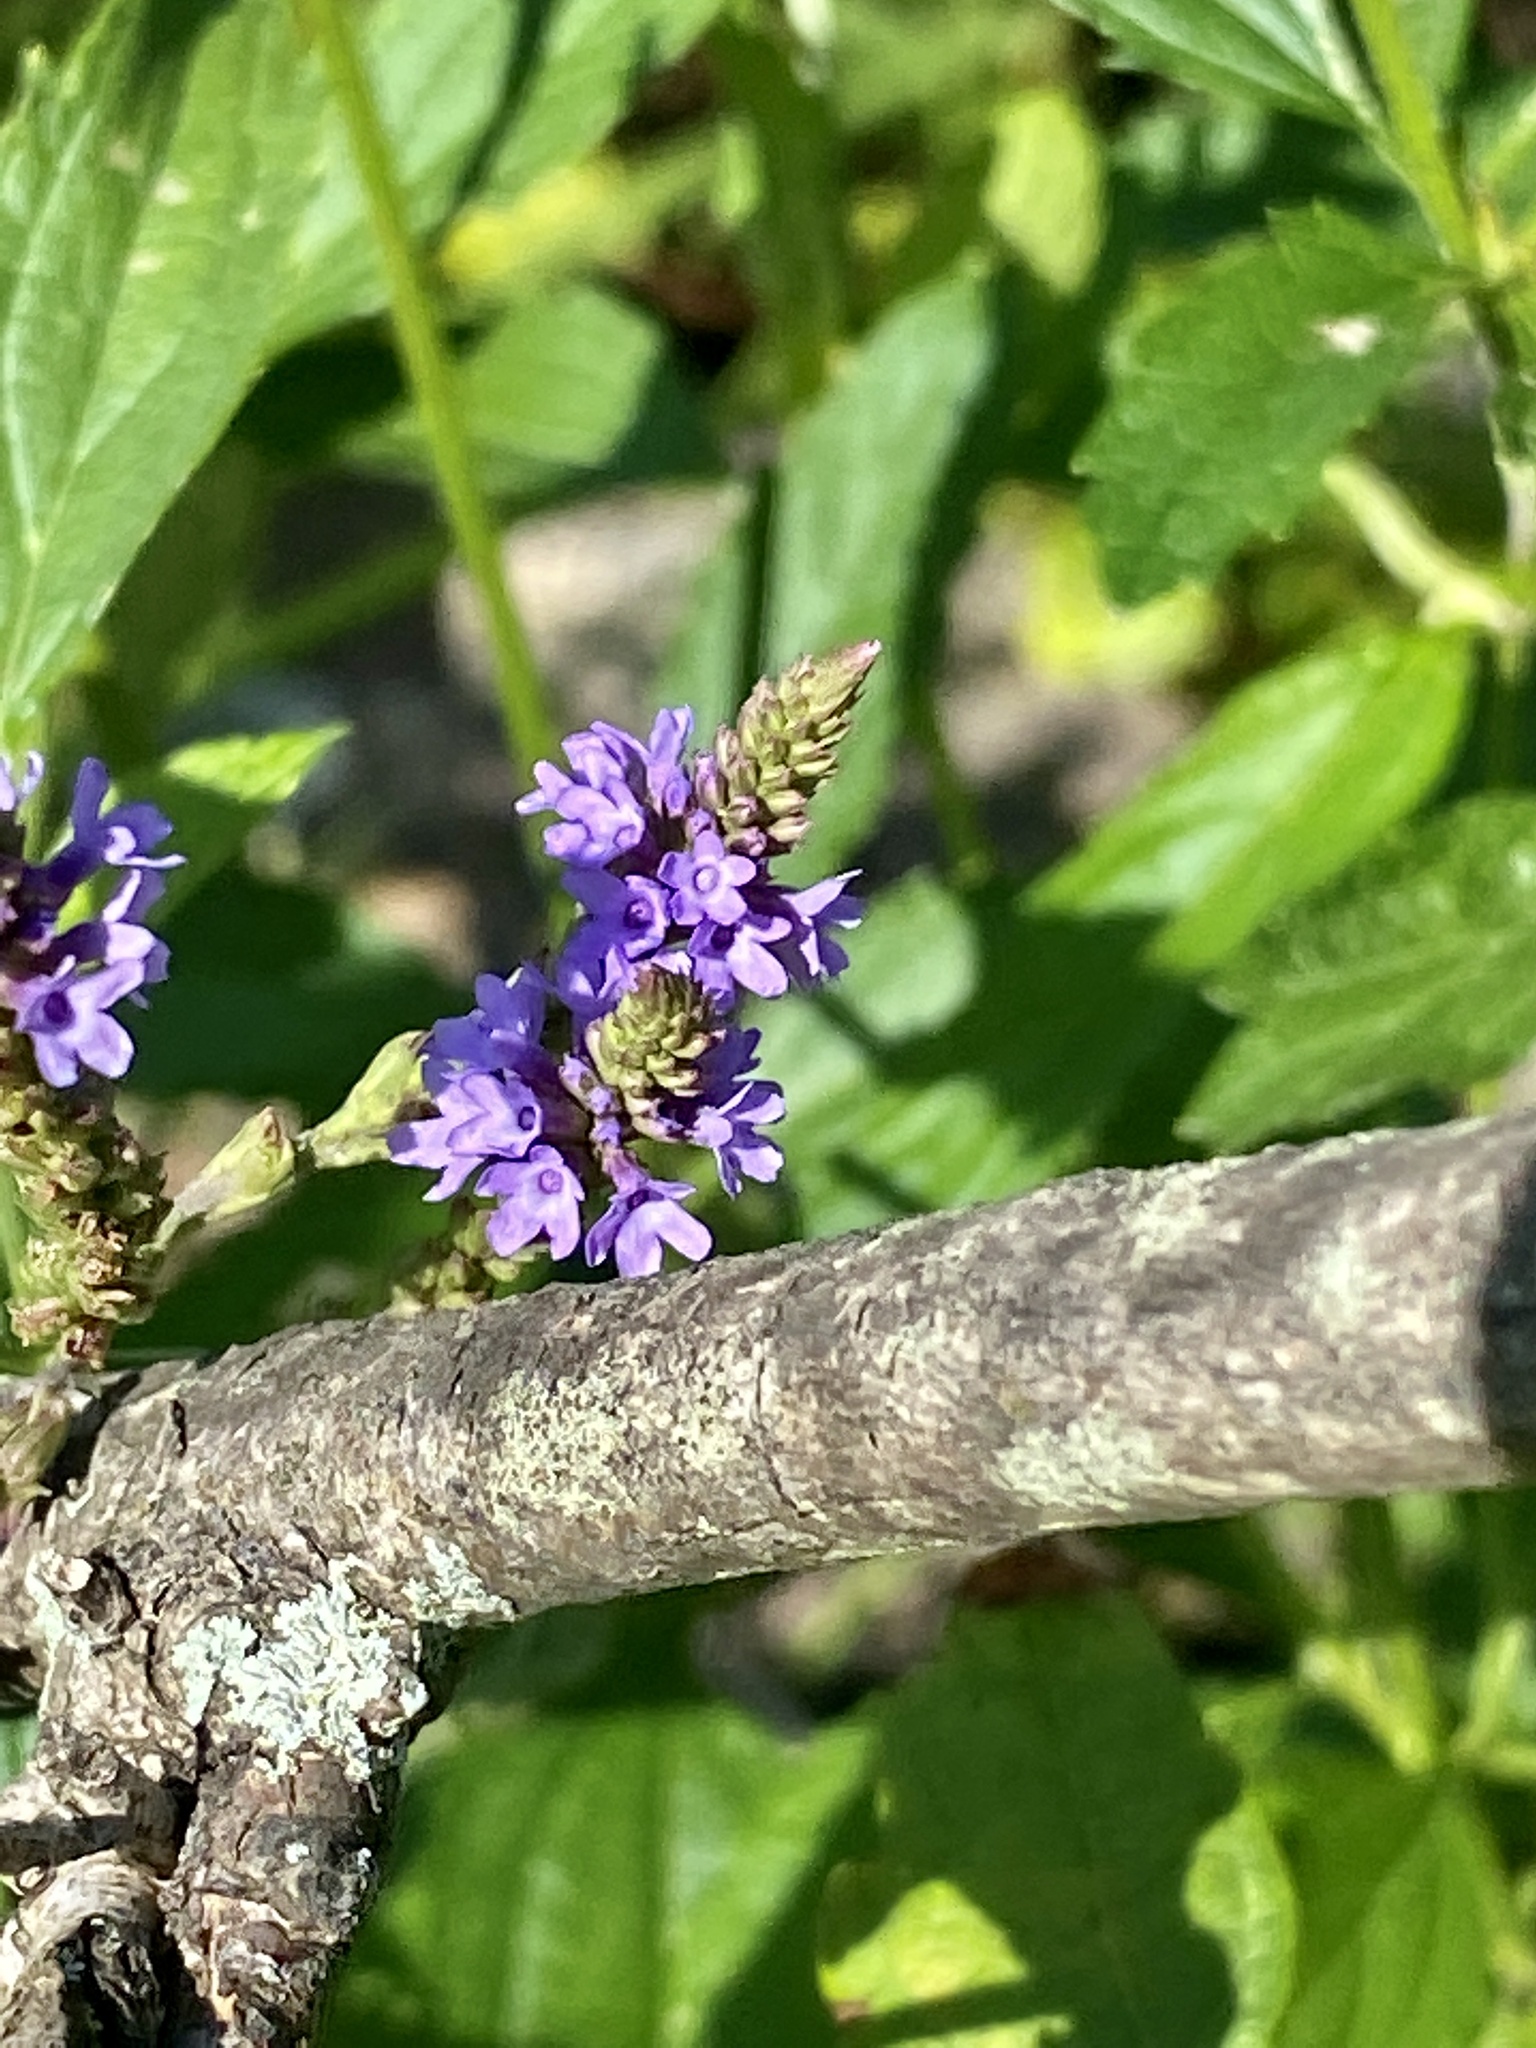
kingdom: Plantae
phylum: Tracheophyta
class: Magnoliopsida
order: Lamiales
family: Verbenaceae
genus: Verbena
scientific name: Verbena hastata
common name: American blue vervain
